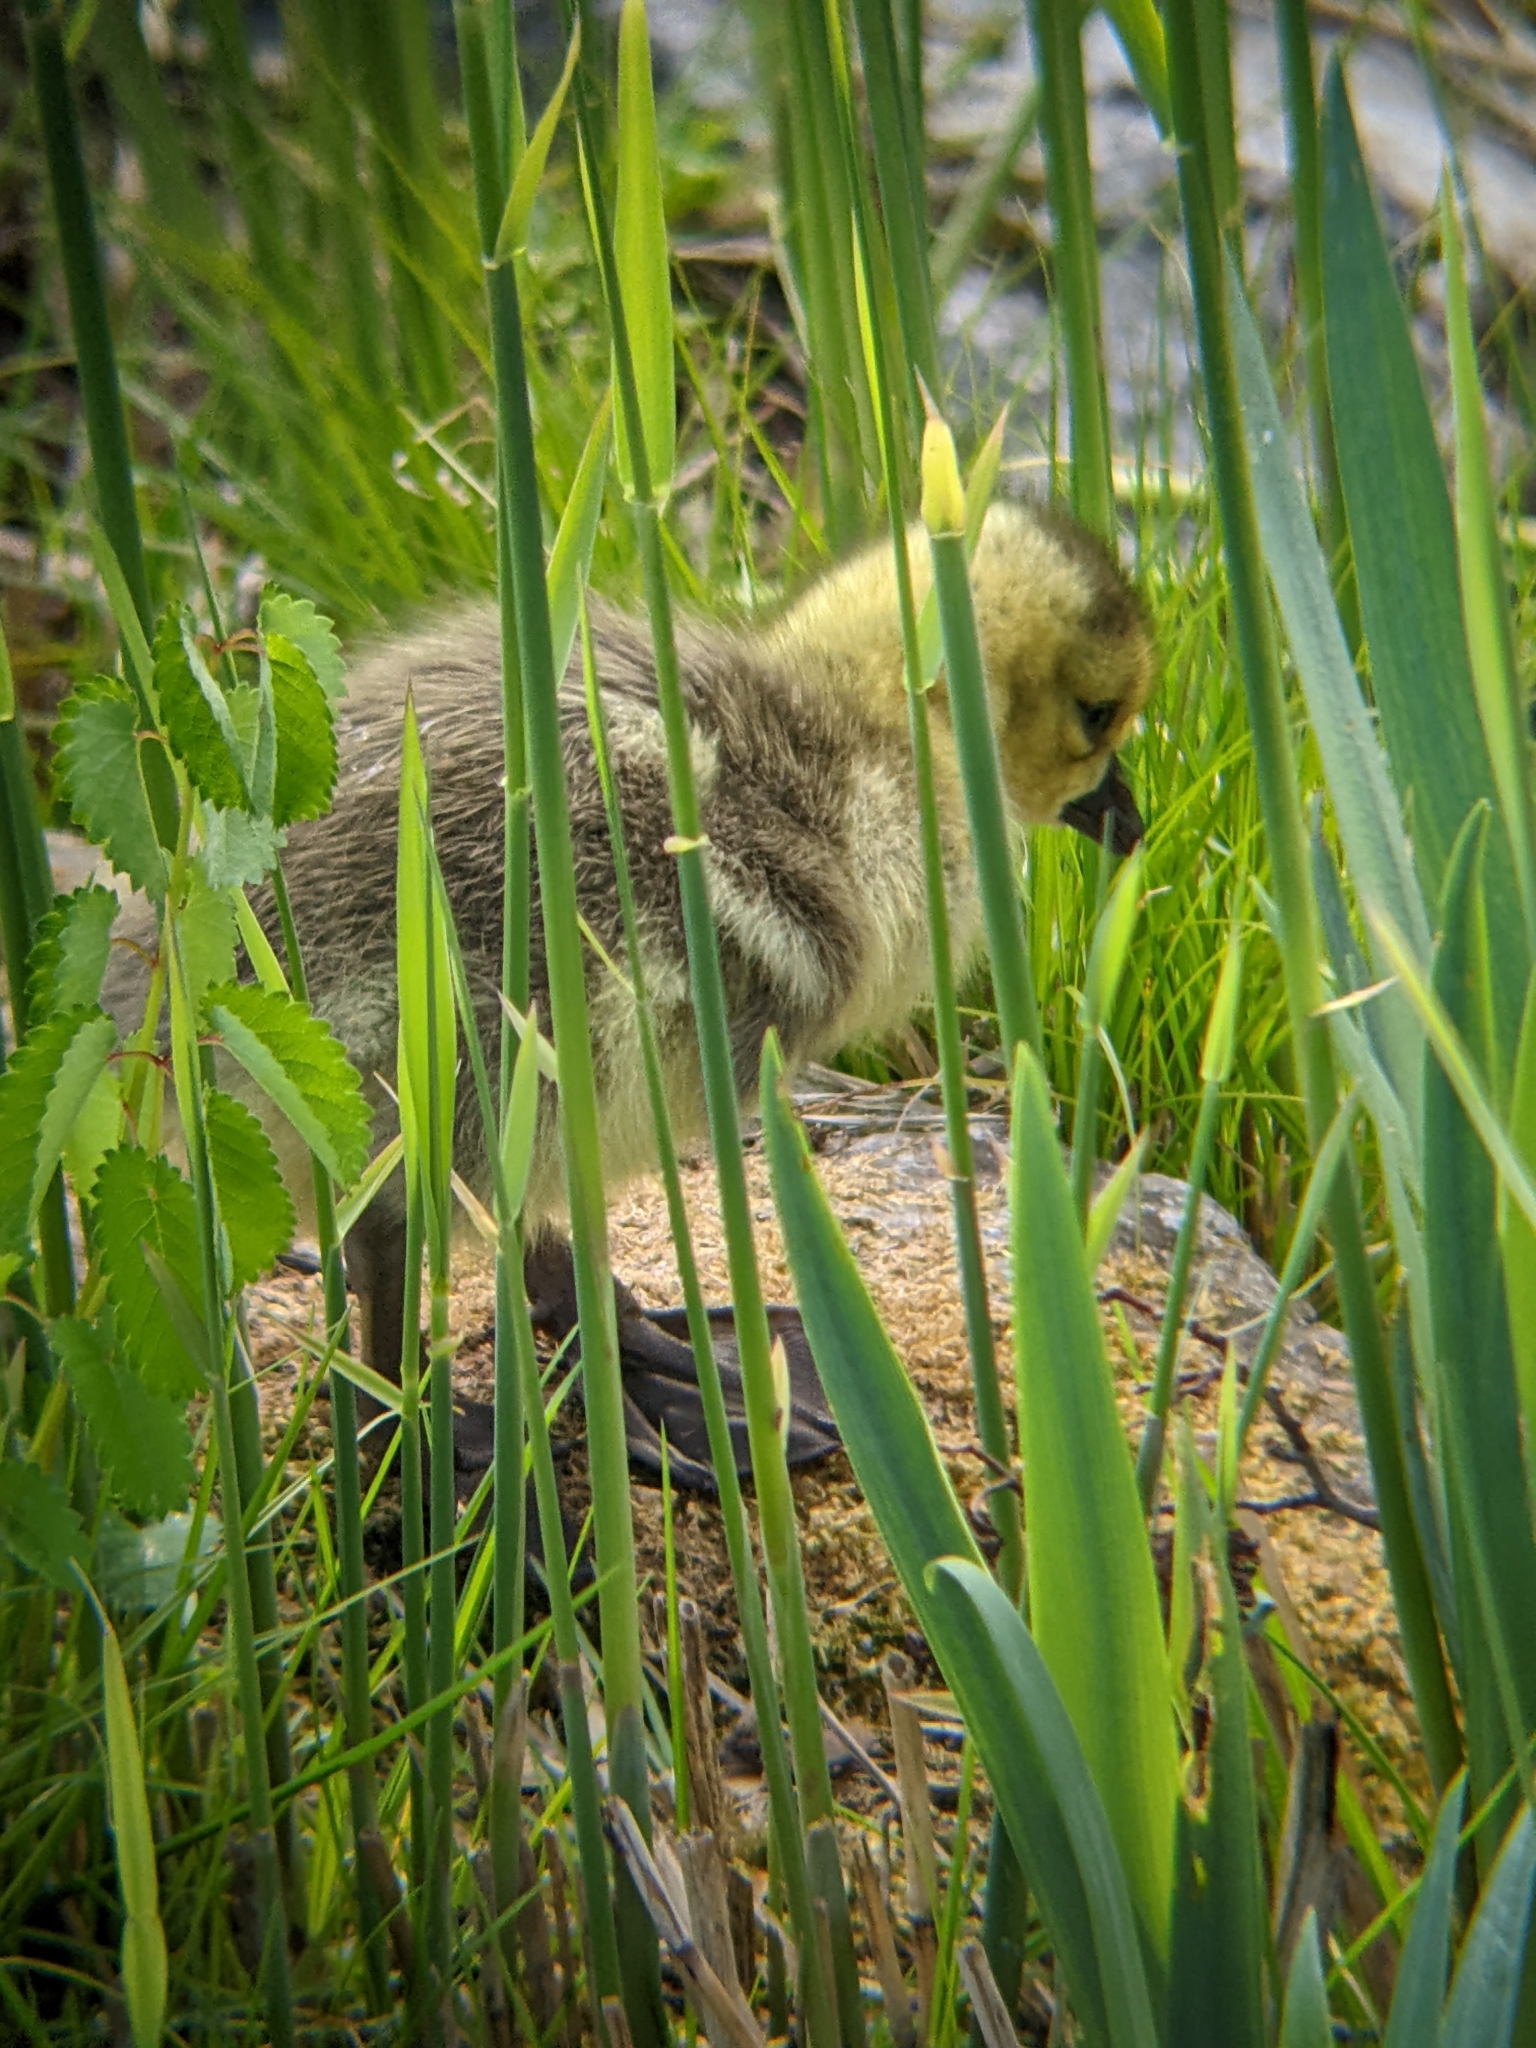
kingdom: Animalia
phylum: Chordata
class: Aves
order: Anseriformes
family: Anatidae
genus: Branta
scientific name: Branta canadensis
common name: Canada goose
